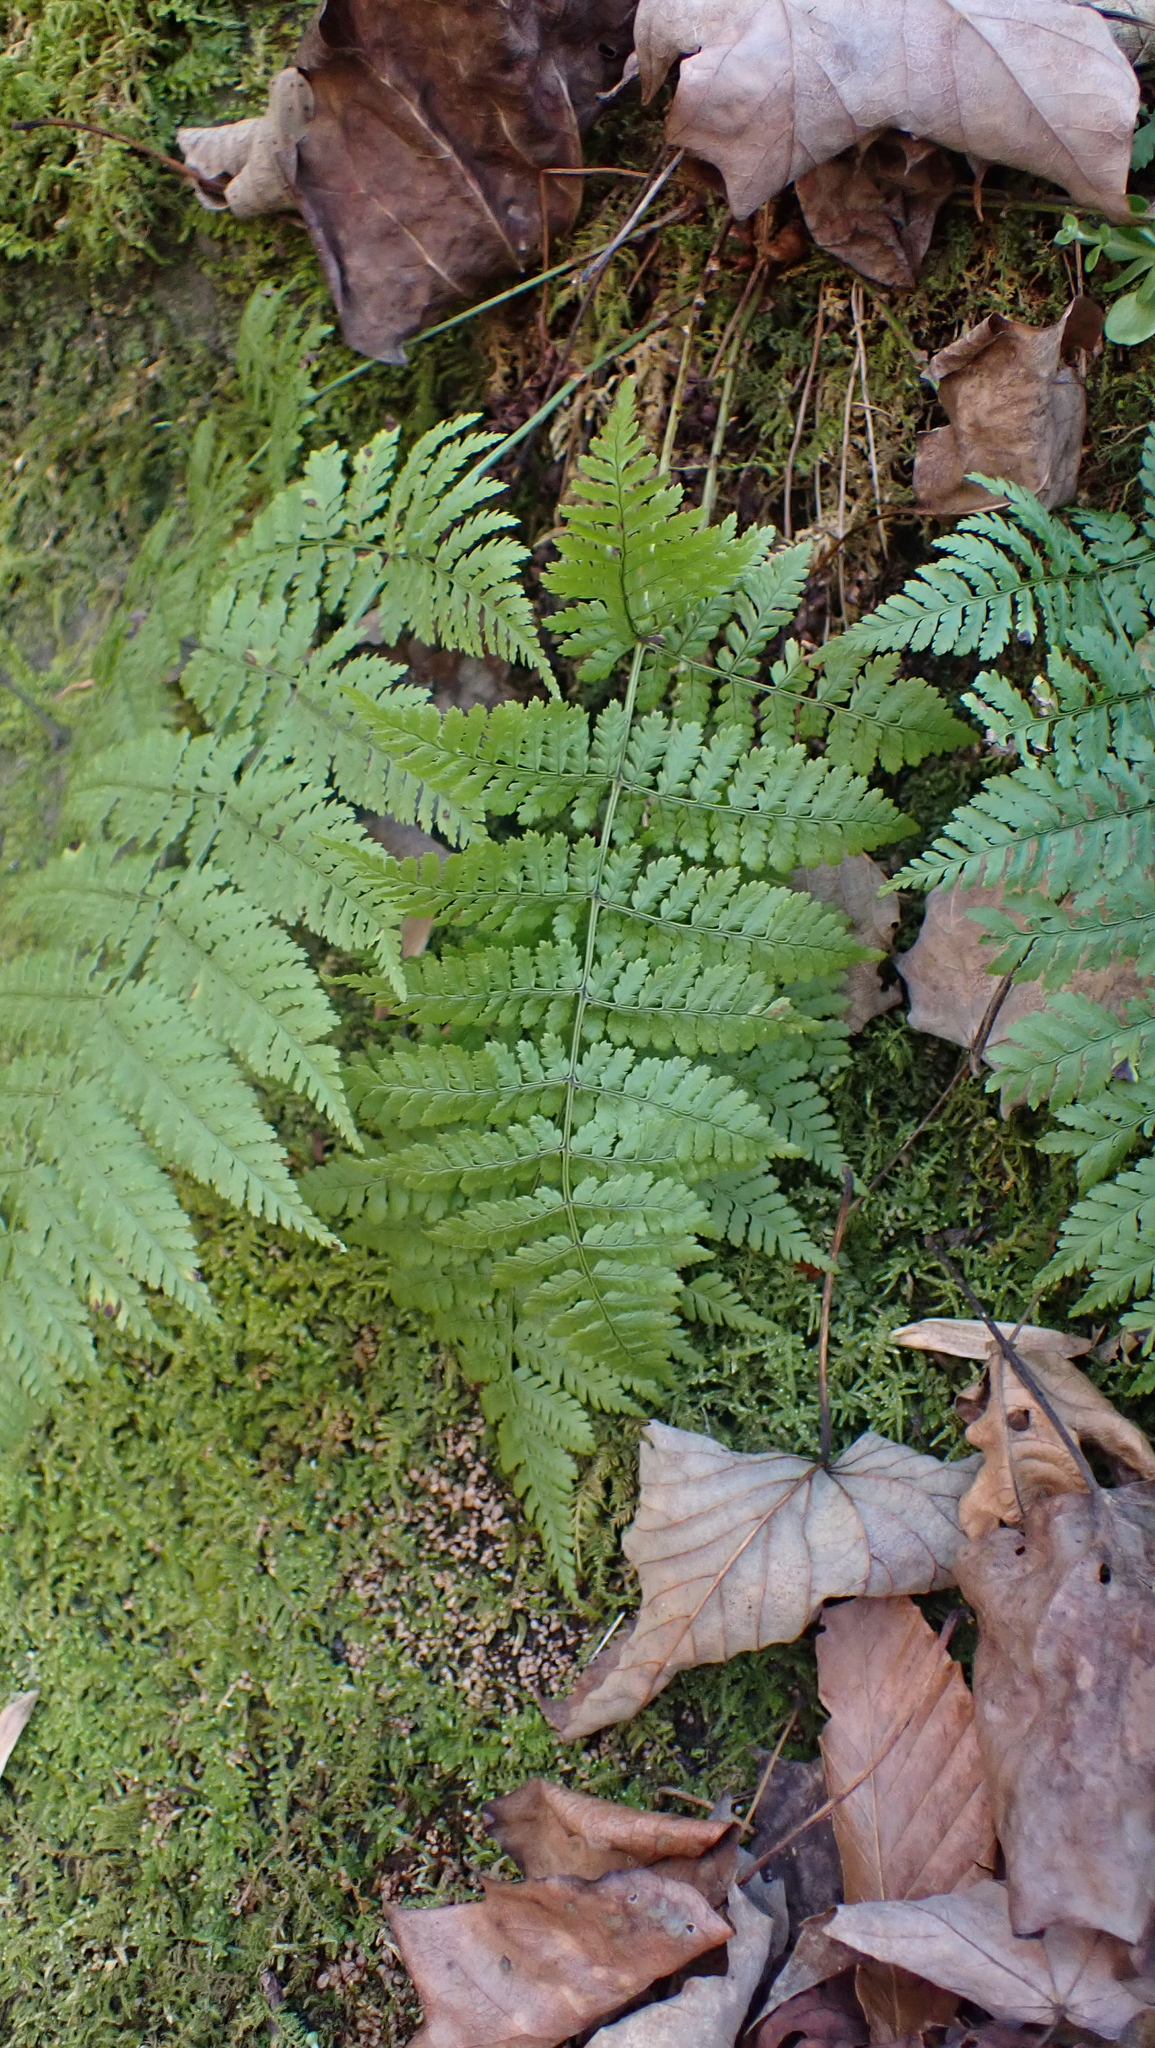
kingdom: Plantae
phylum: Tracheophyta
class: Polypodiopsida
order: Polypodiales
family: Dryopteridaceae
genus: Dryopteris
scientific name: Dryopteris intermedia
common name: Evergreen wood fern
